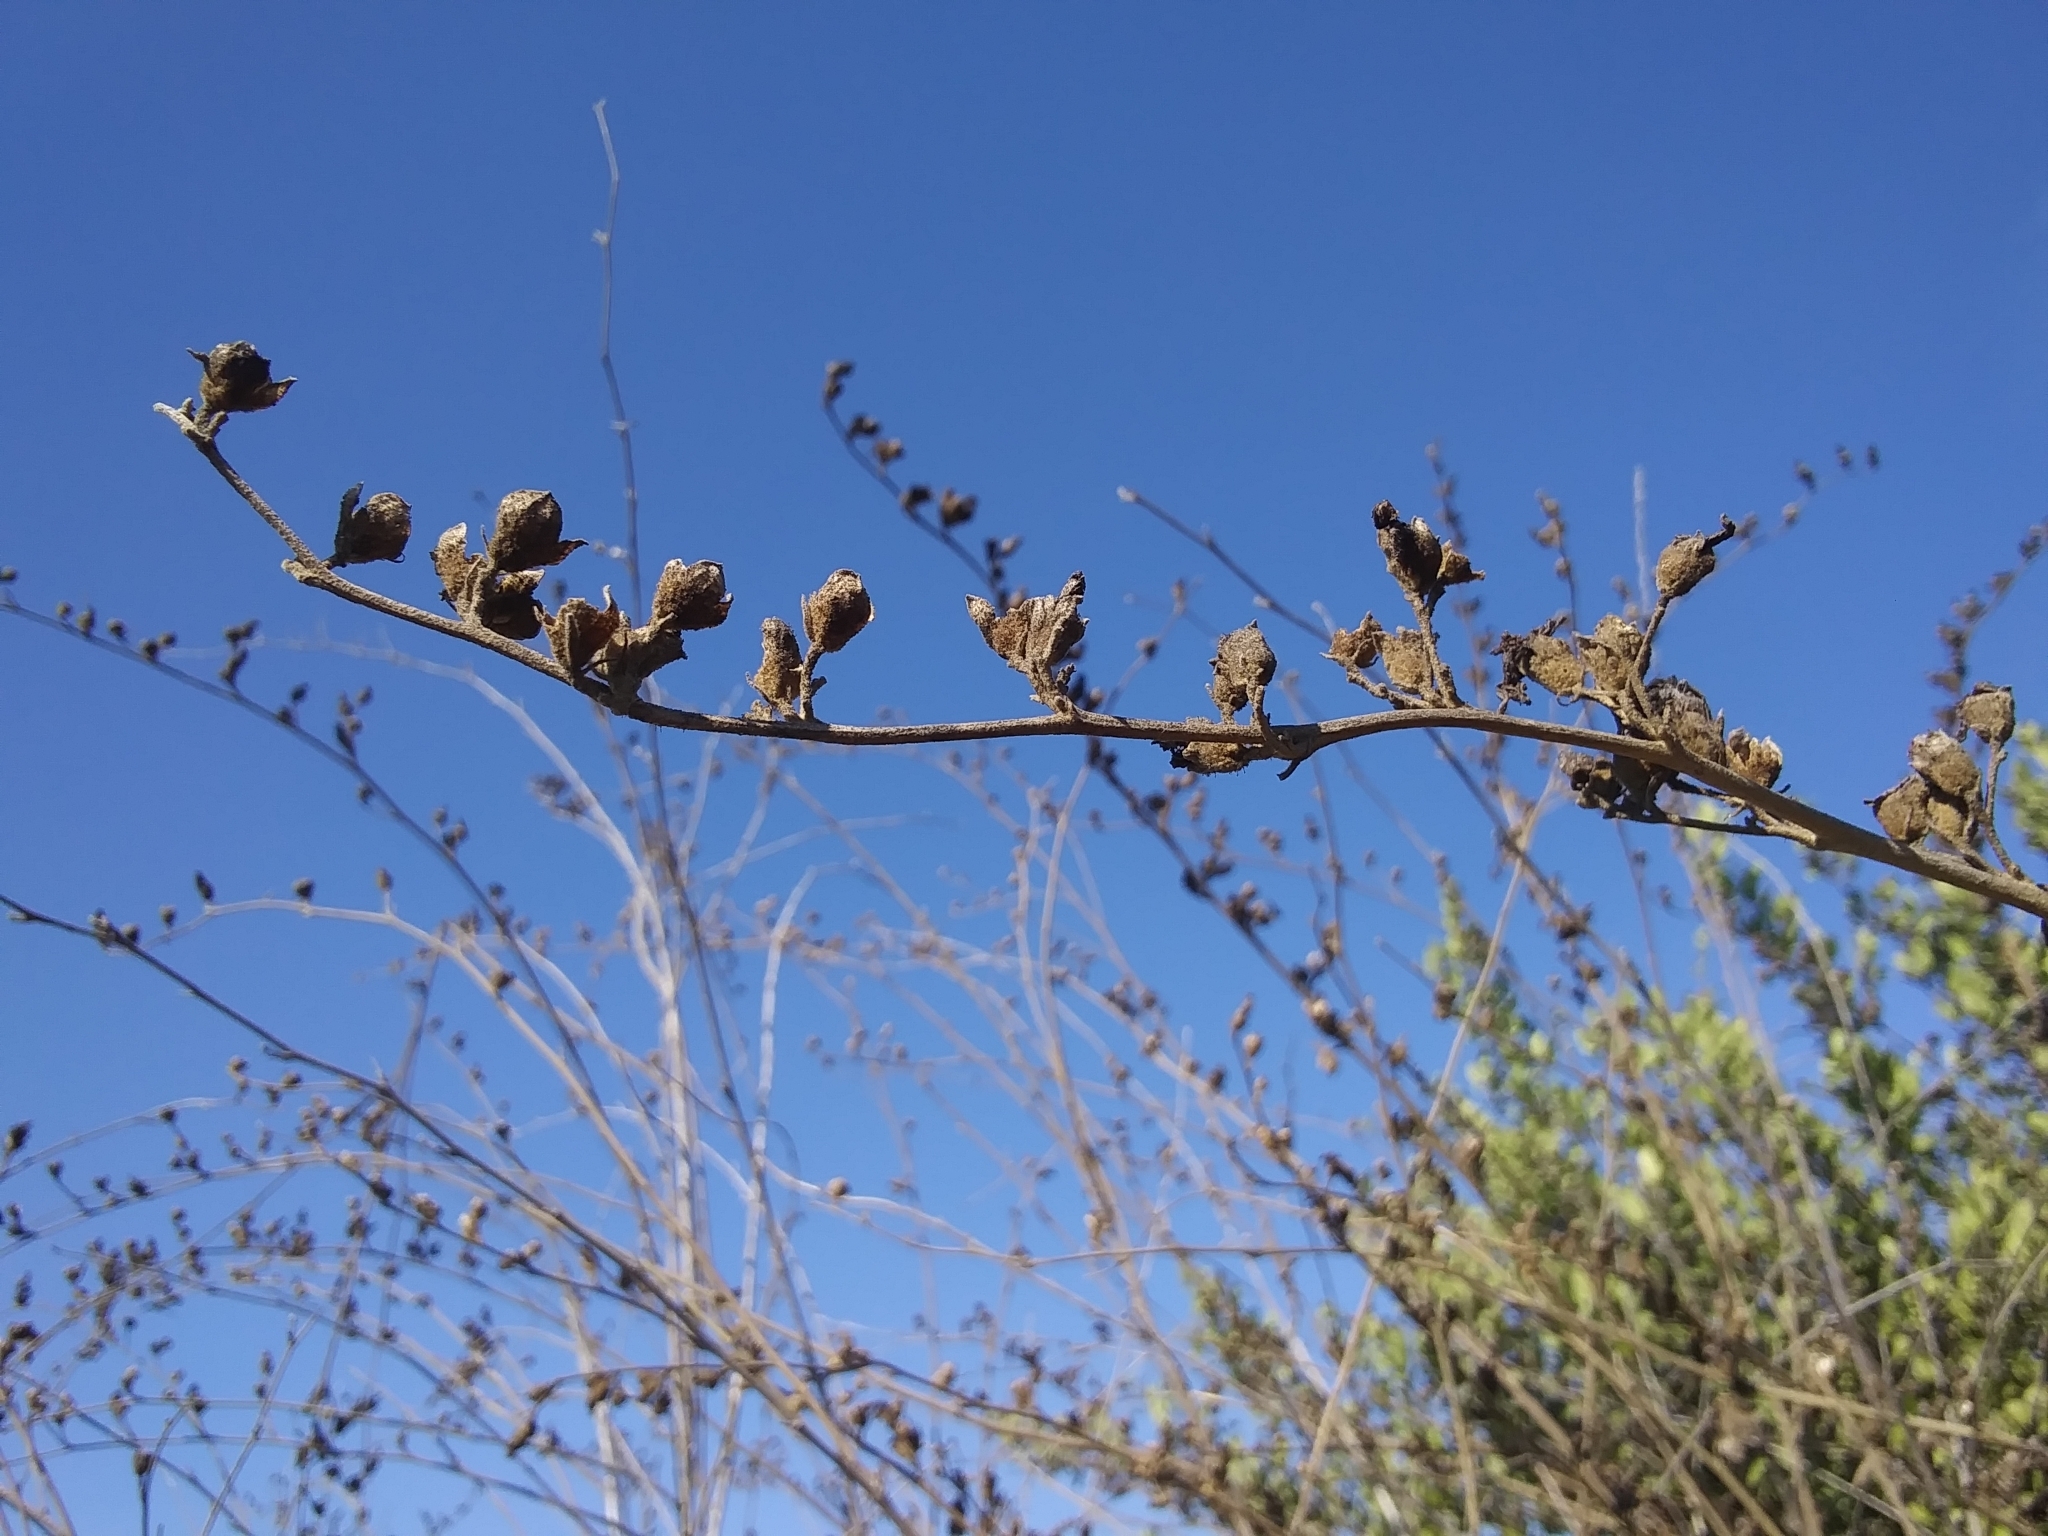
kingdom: Plantae
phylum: Tracheophyta
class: Magnoliopsida
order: Malvales
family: Malvaceae
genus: Malacothamnus
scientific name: Malacothamnus fasciculatus
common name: Sant cruz island bush-mallow
